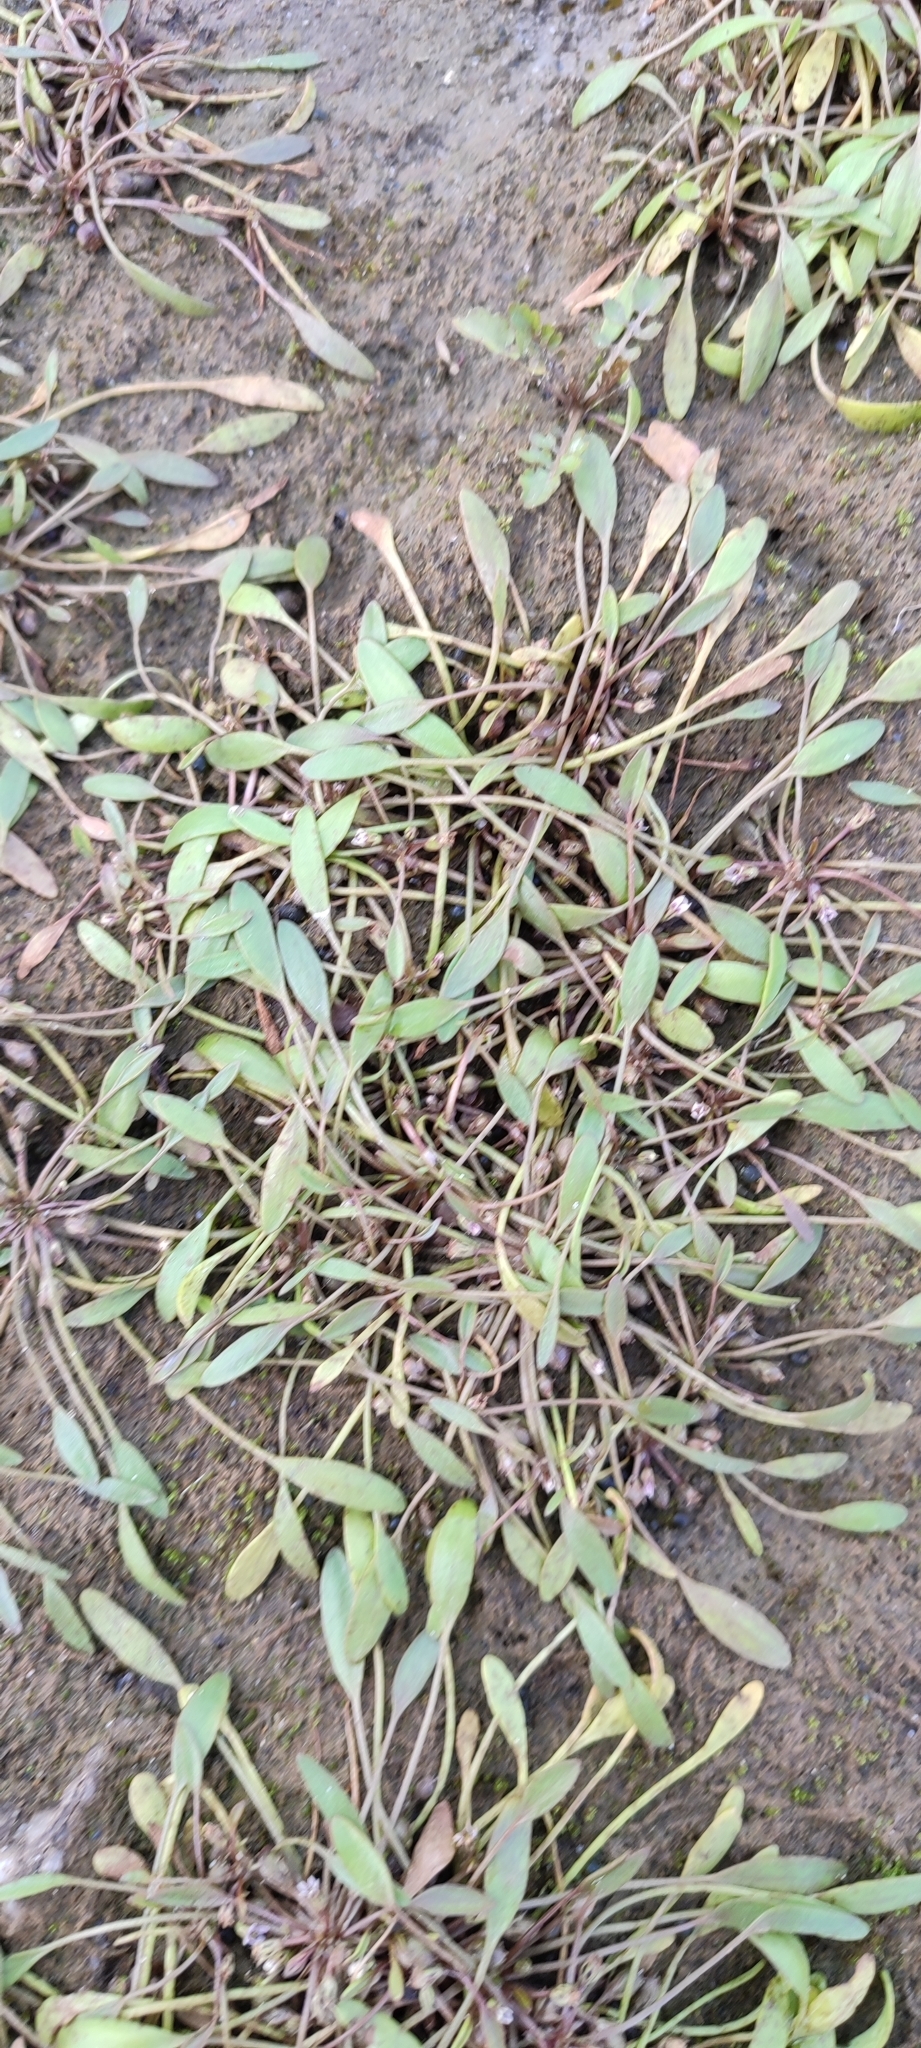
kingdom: Plantae
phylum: Tracheophyta
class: Magnoliopsida
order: Lamiales
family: Scrophulariaceae
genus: Limosella
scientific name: Limosella aquatica
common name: Mudwort
